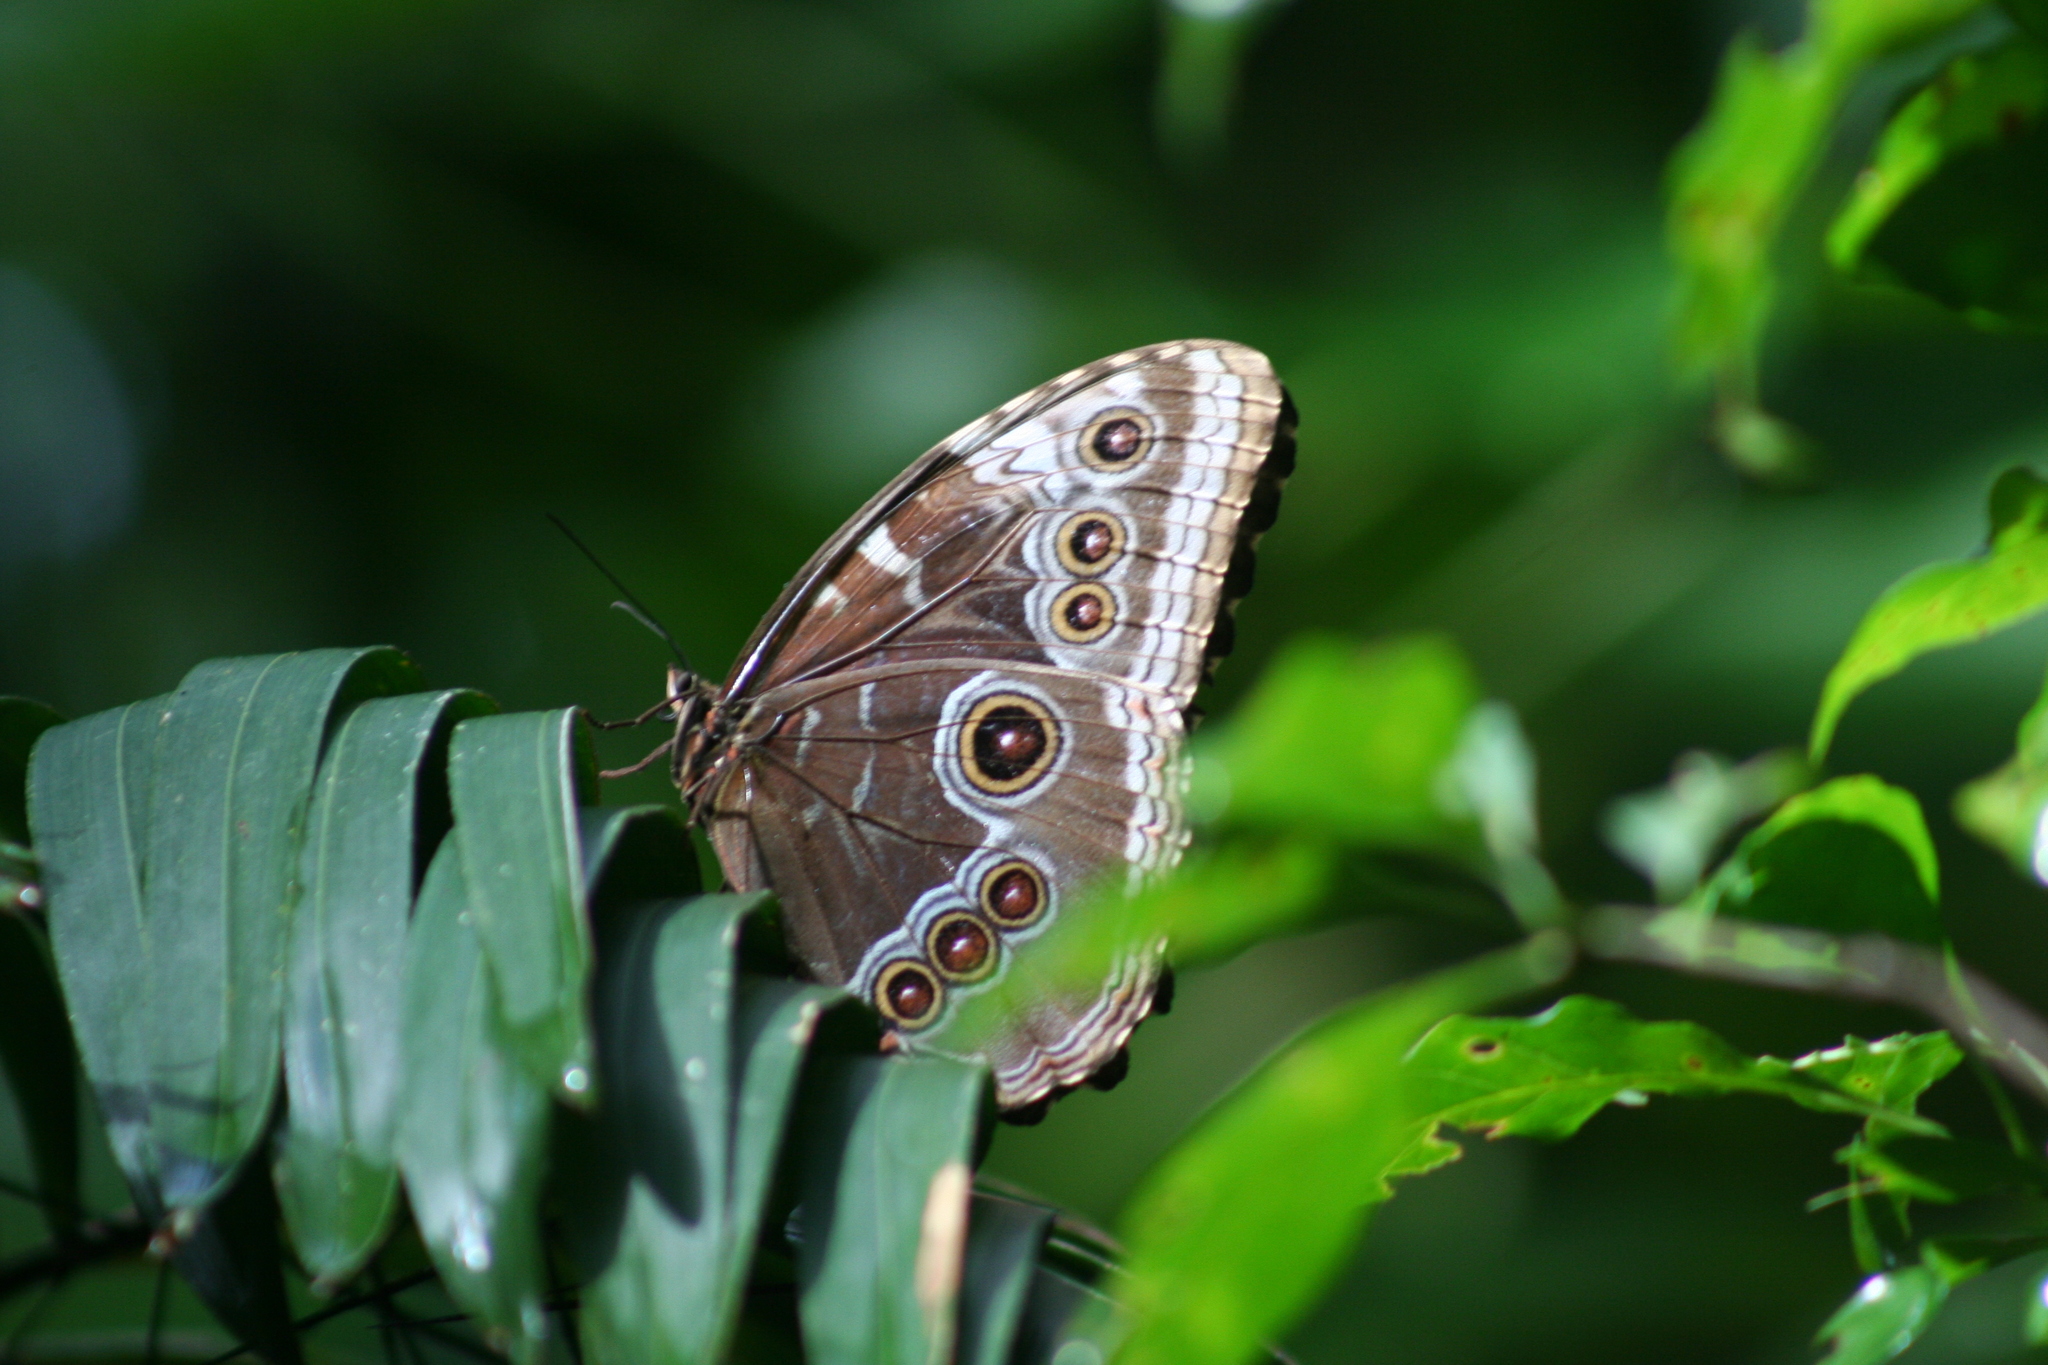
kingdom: Animalia
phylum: Arthropoda
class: Insecta
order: Lepidoptera
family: Nymphalidae
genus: Morpho
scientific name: Morpho helenor
